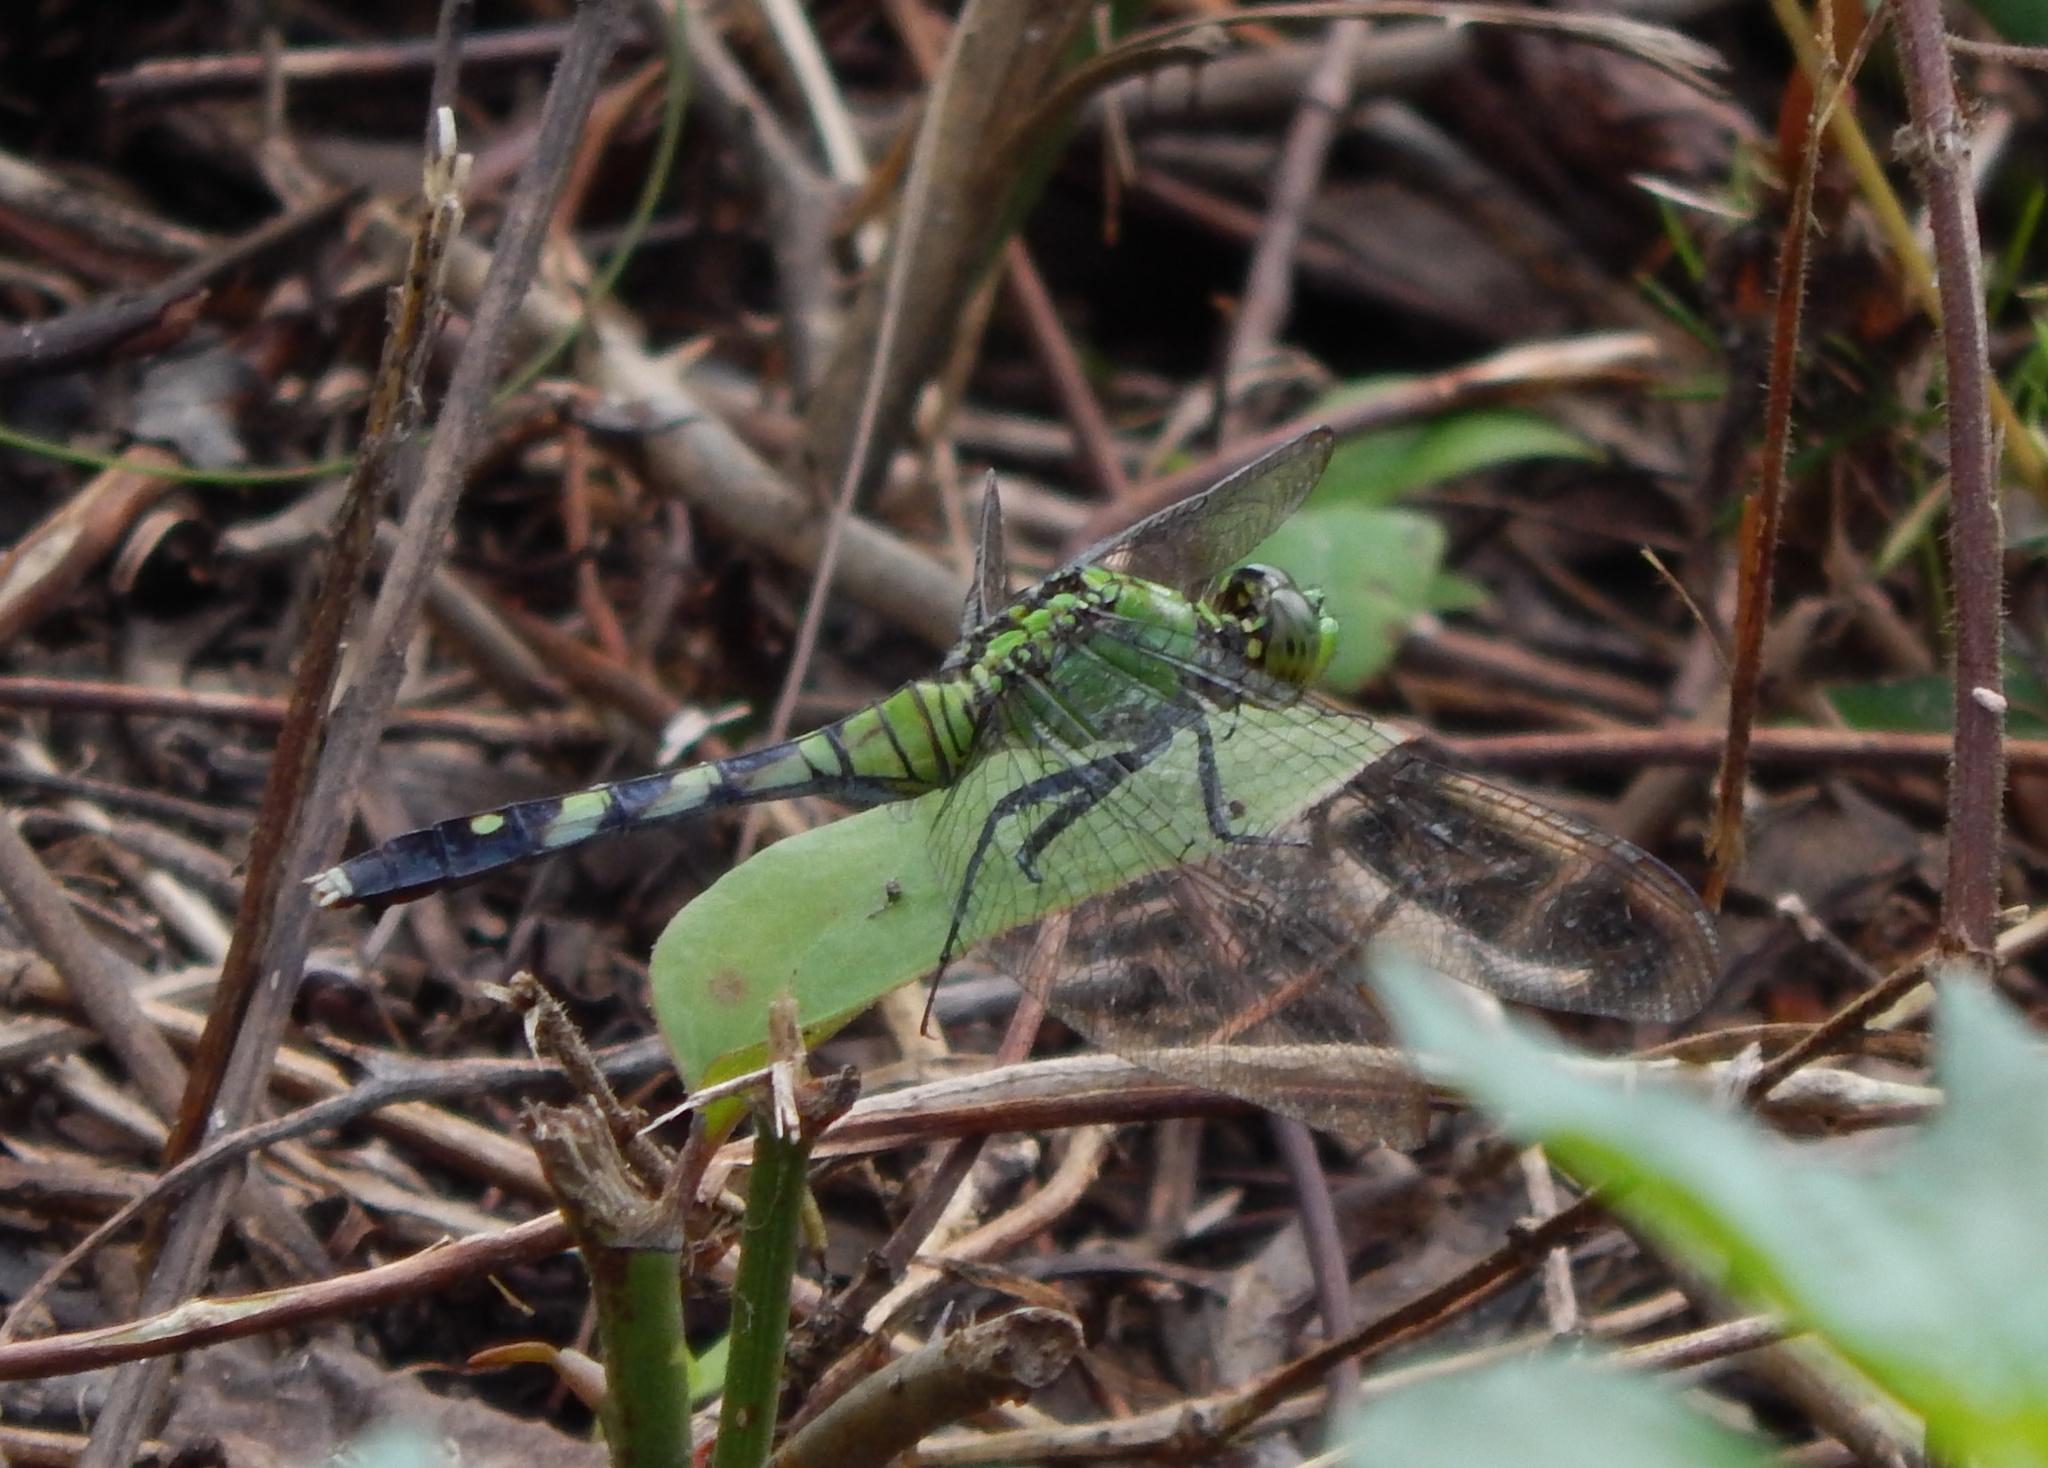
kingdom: Animalia
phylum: Arthropoda
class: Insecta
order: Odonata
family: Libellulidae
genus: Erythemis
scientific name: Erythemis simplicicollis
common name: Eastern pondhawk
